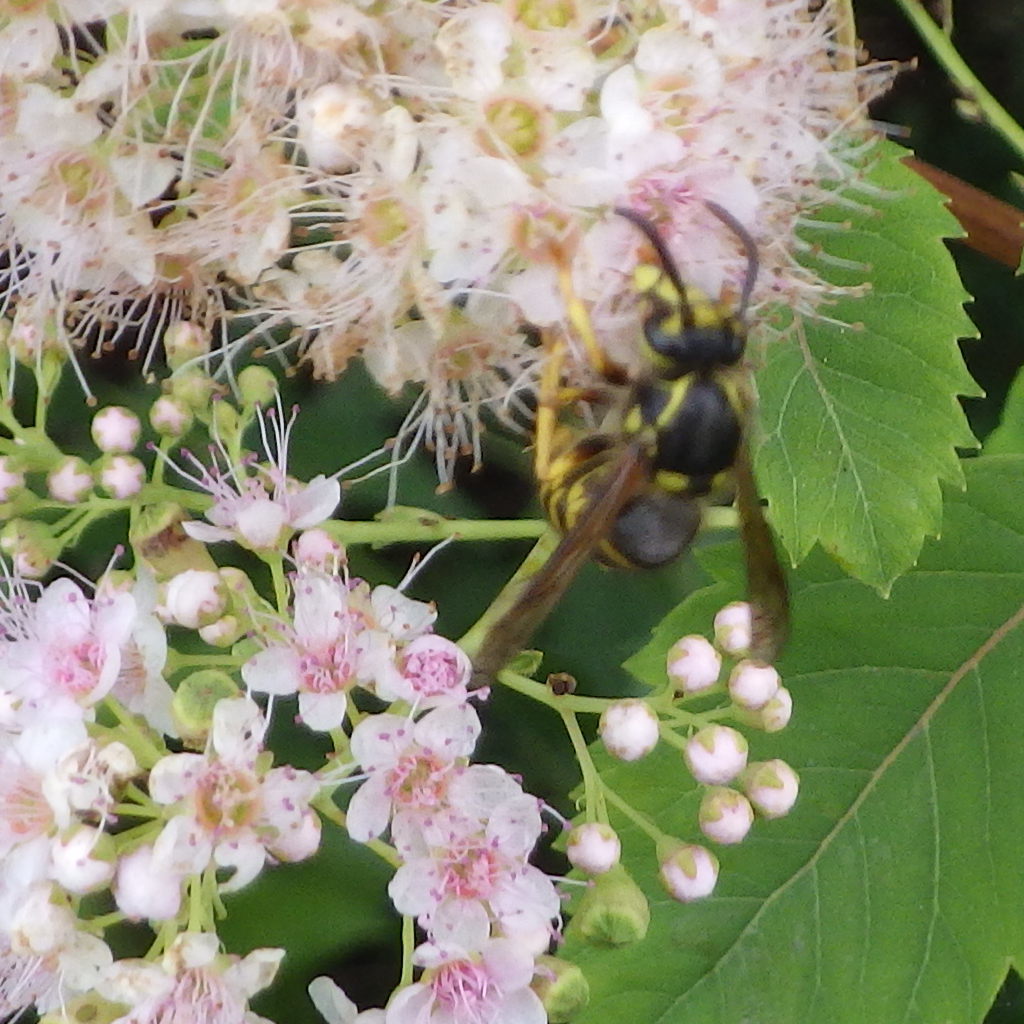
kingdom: Animalia
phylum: Arthropoda
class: Insecta
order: Hymenoptera
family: Vespidae
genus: Dolichovespula
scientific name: Dolichovespula arenaria
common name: Aerial yellowjacket
